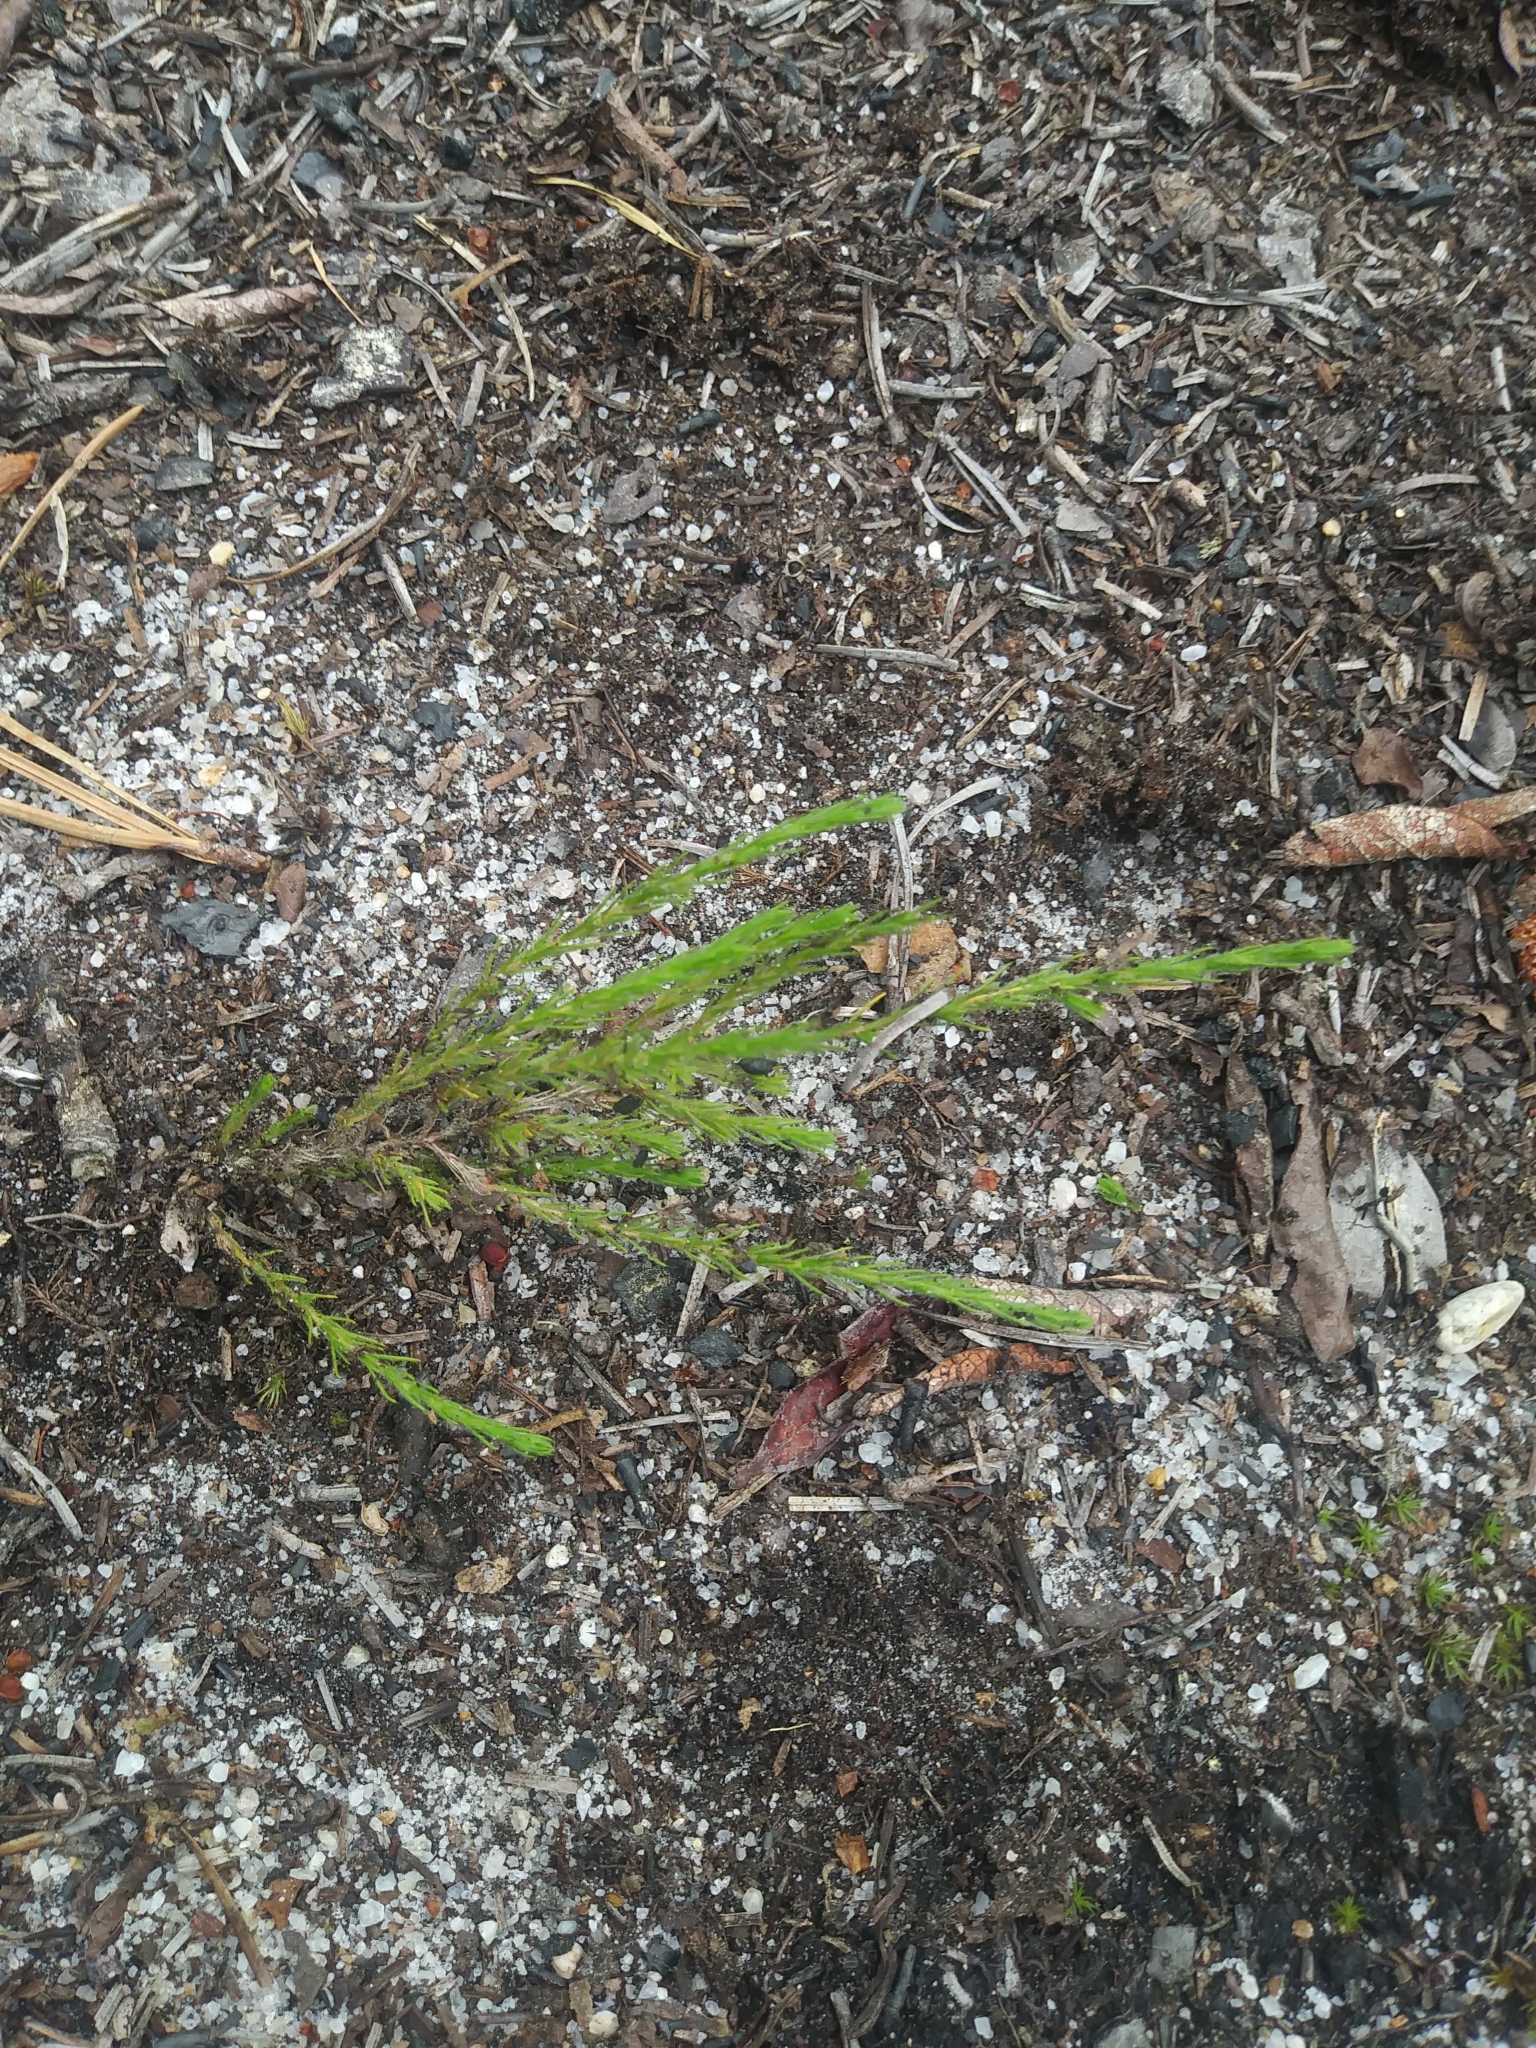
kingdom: Plantae
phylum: Tracheophyta
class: Magnoliopsida
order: Malvales
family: Cistaceae
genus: Hudsonia
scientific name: Hudsonia ericoides
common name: Golden-heather
